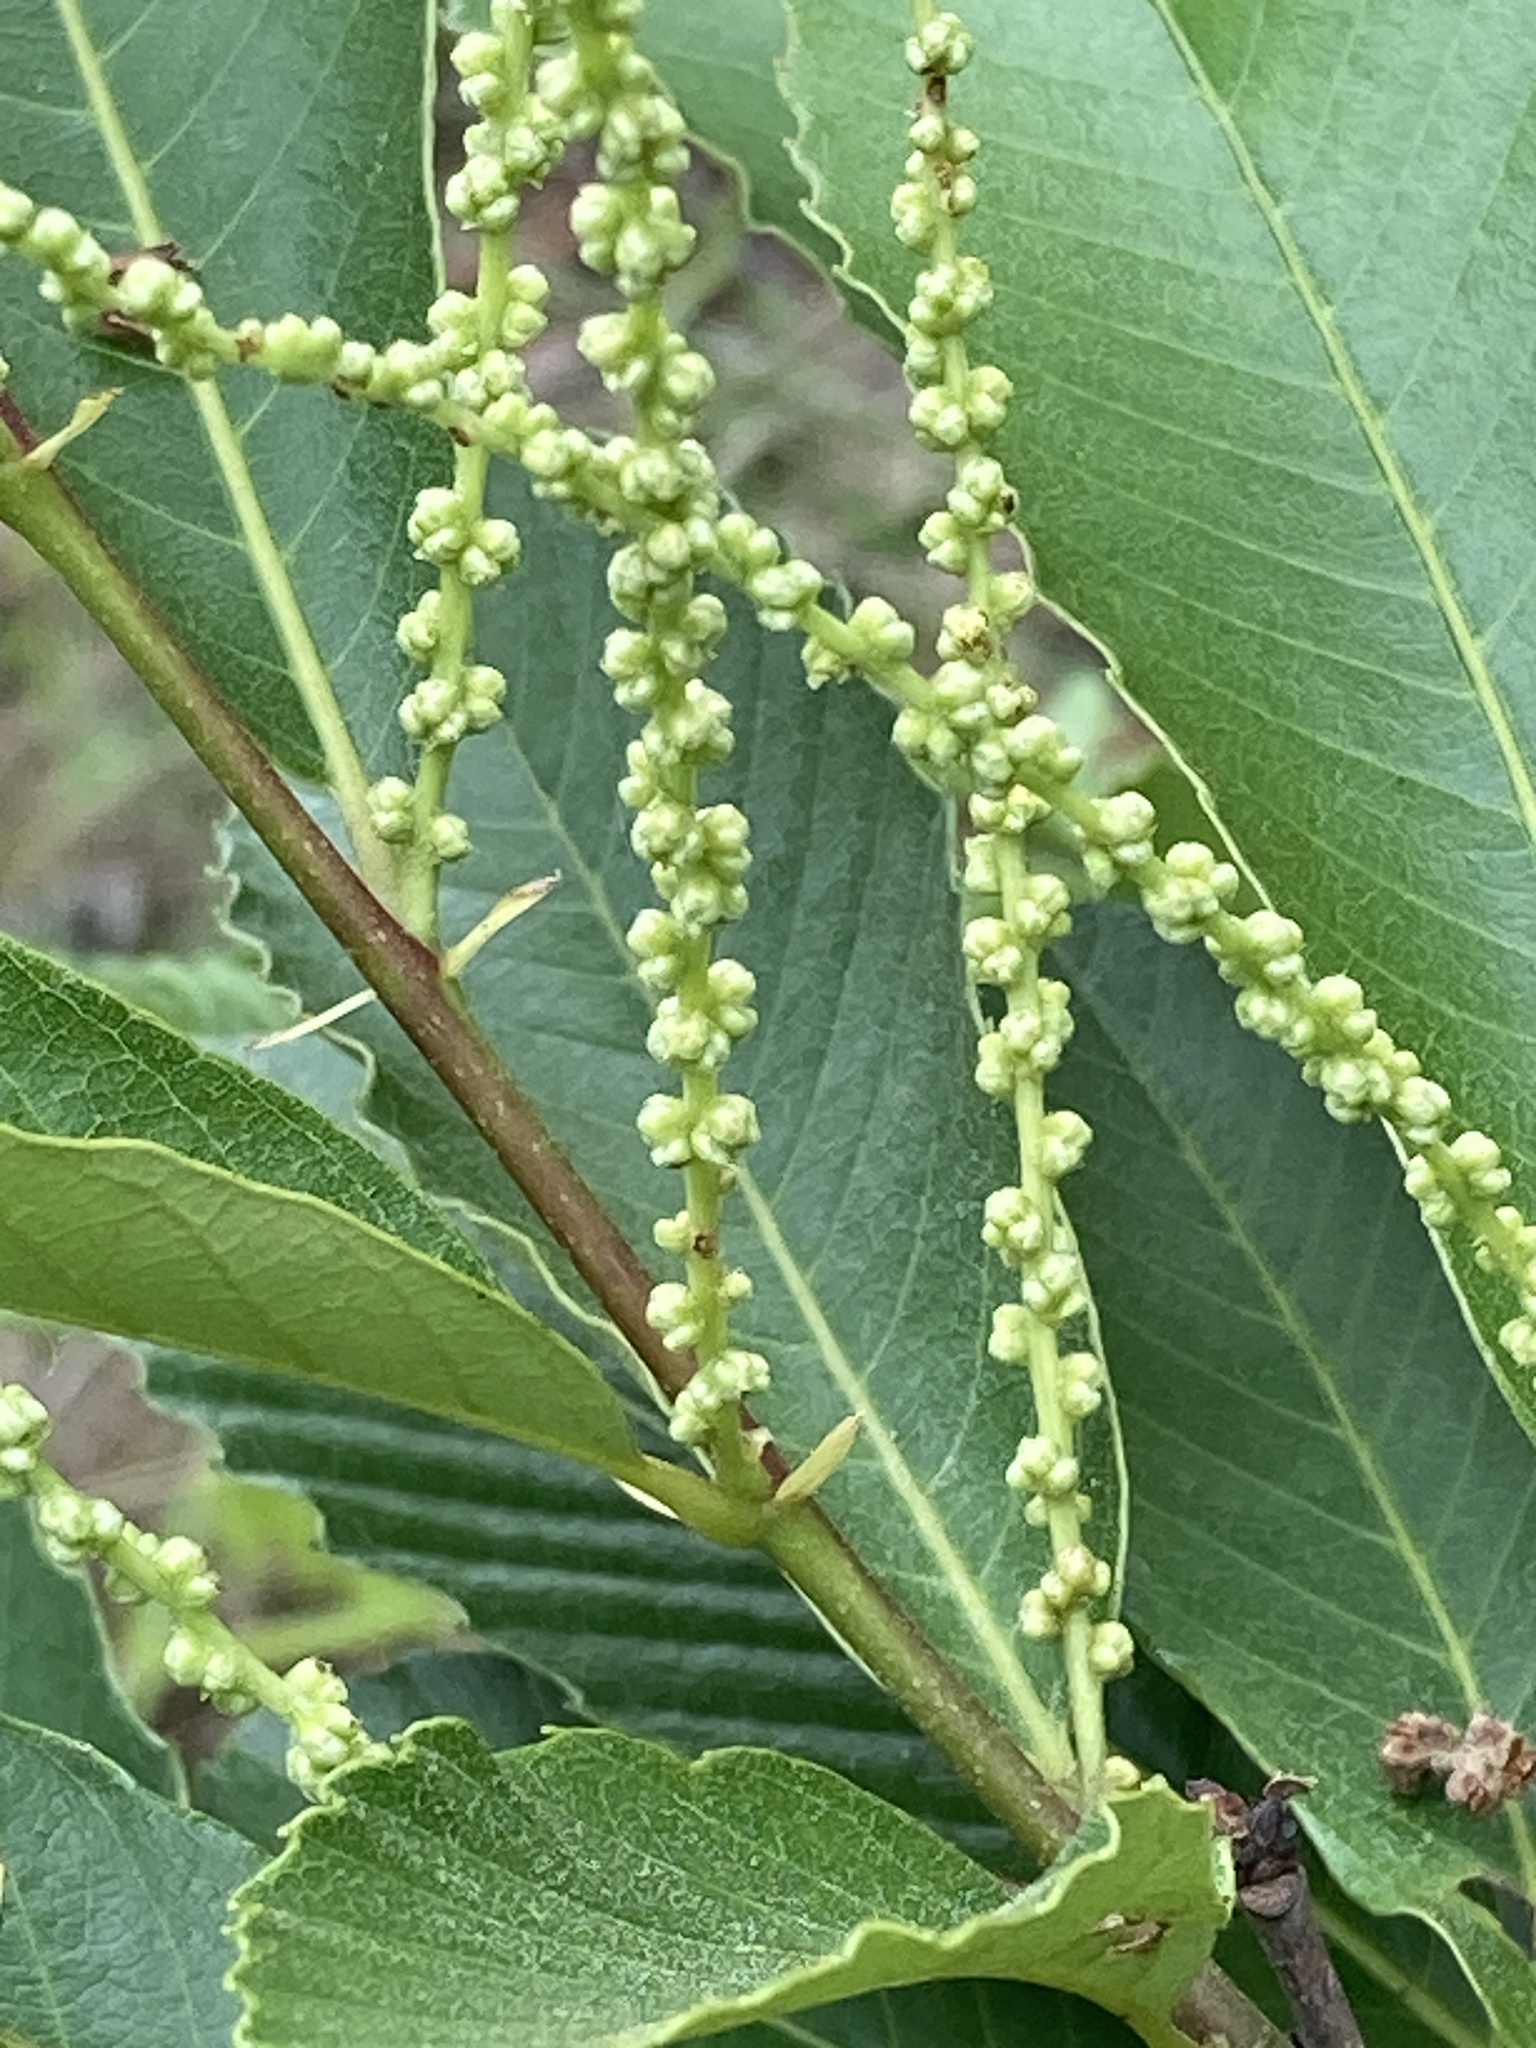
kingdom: Plantae
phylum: Tracheophyta
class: Magnoliopsida
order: Fagales
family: Fagaceae
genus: Castanea
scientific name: Castanea pumila
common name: Chinkapin
